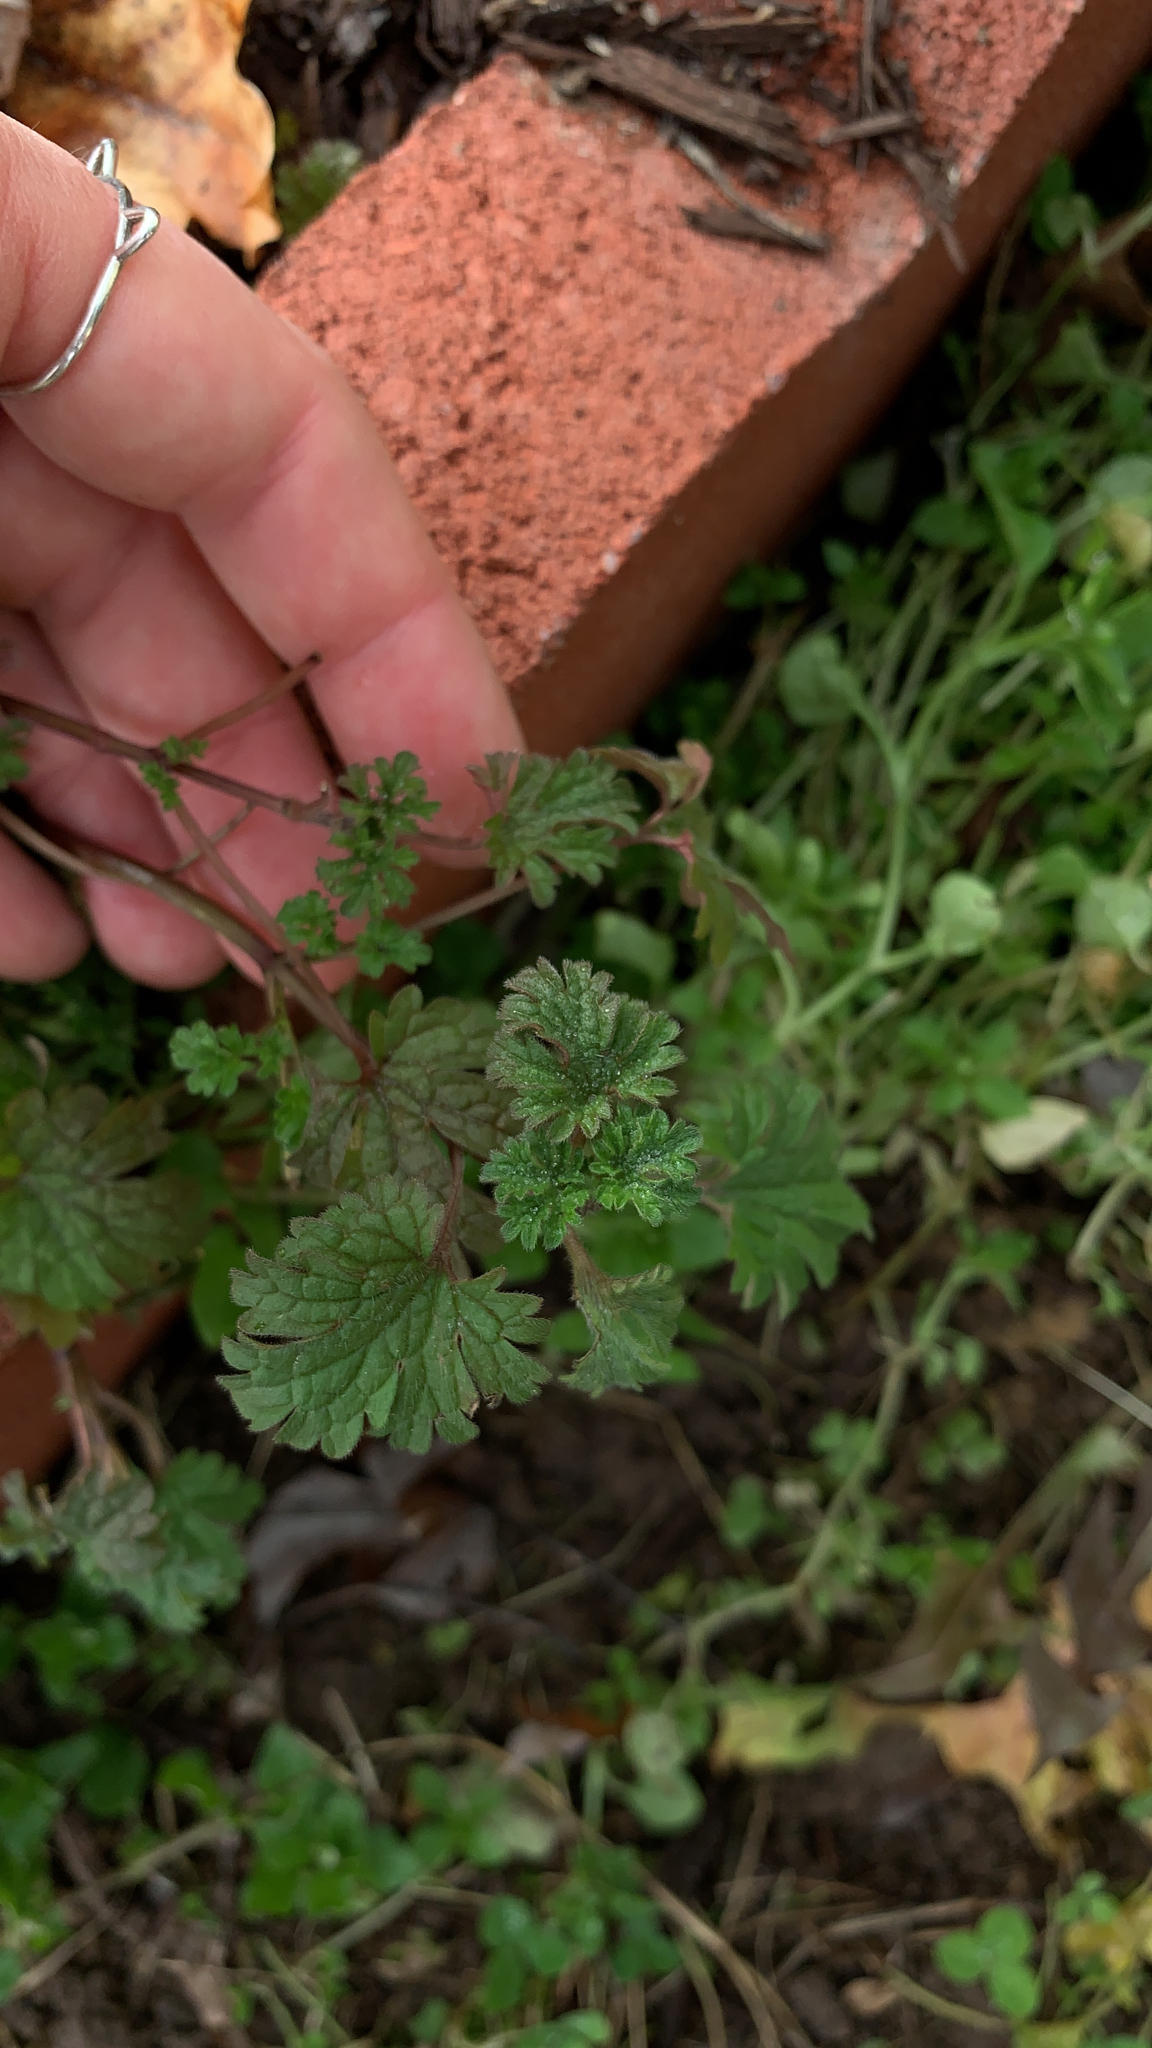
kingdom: Plantae
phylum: Tracheophyta
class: Magnoliopsida
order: Lamiales
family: Lamiaceae
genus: Lamium
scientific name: Lamium amplexicaule
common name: Henbit dead-nettle
